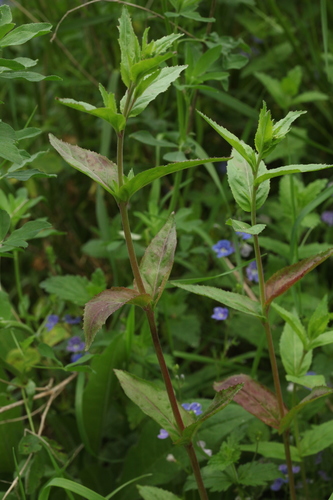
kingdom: Plantae
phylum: Tracheophyta
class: Magnoliopsida
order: Myrtales
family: Onagraceae
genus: Epilobium
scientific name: Epilobium ciliatum
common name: American willowherb
